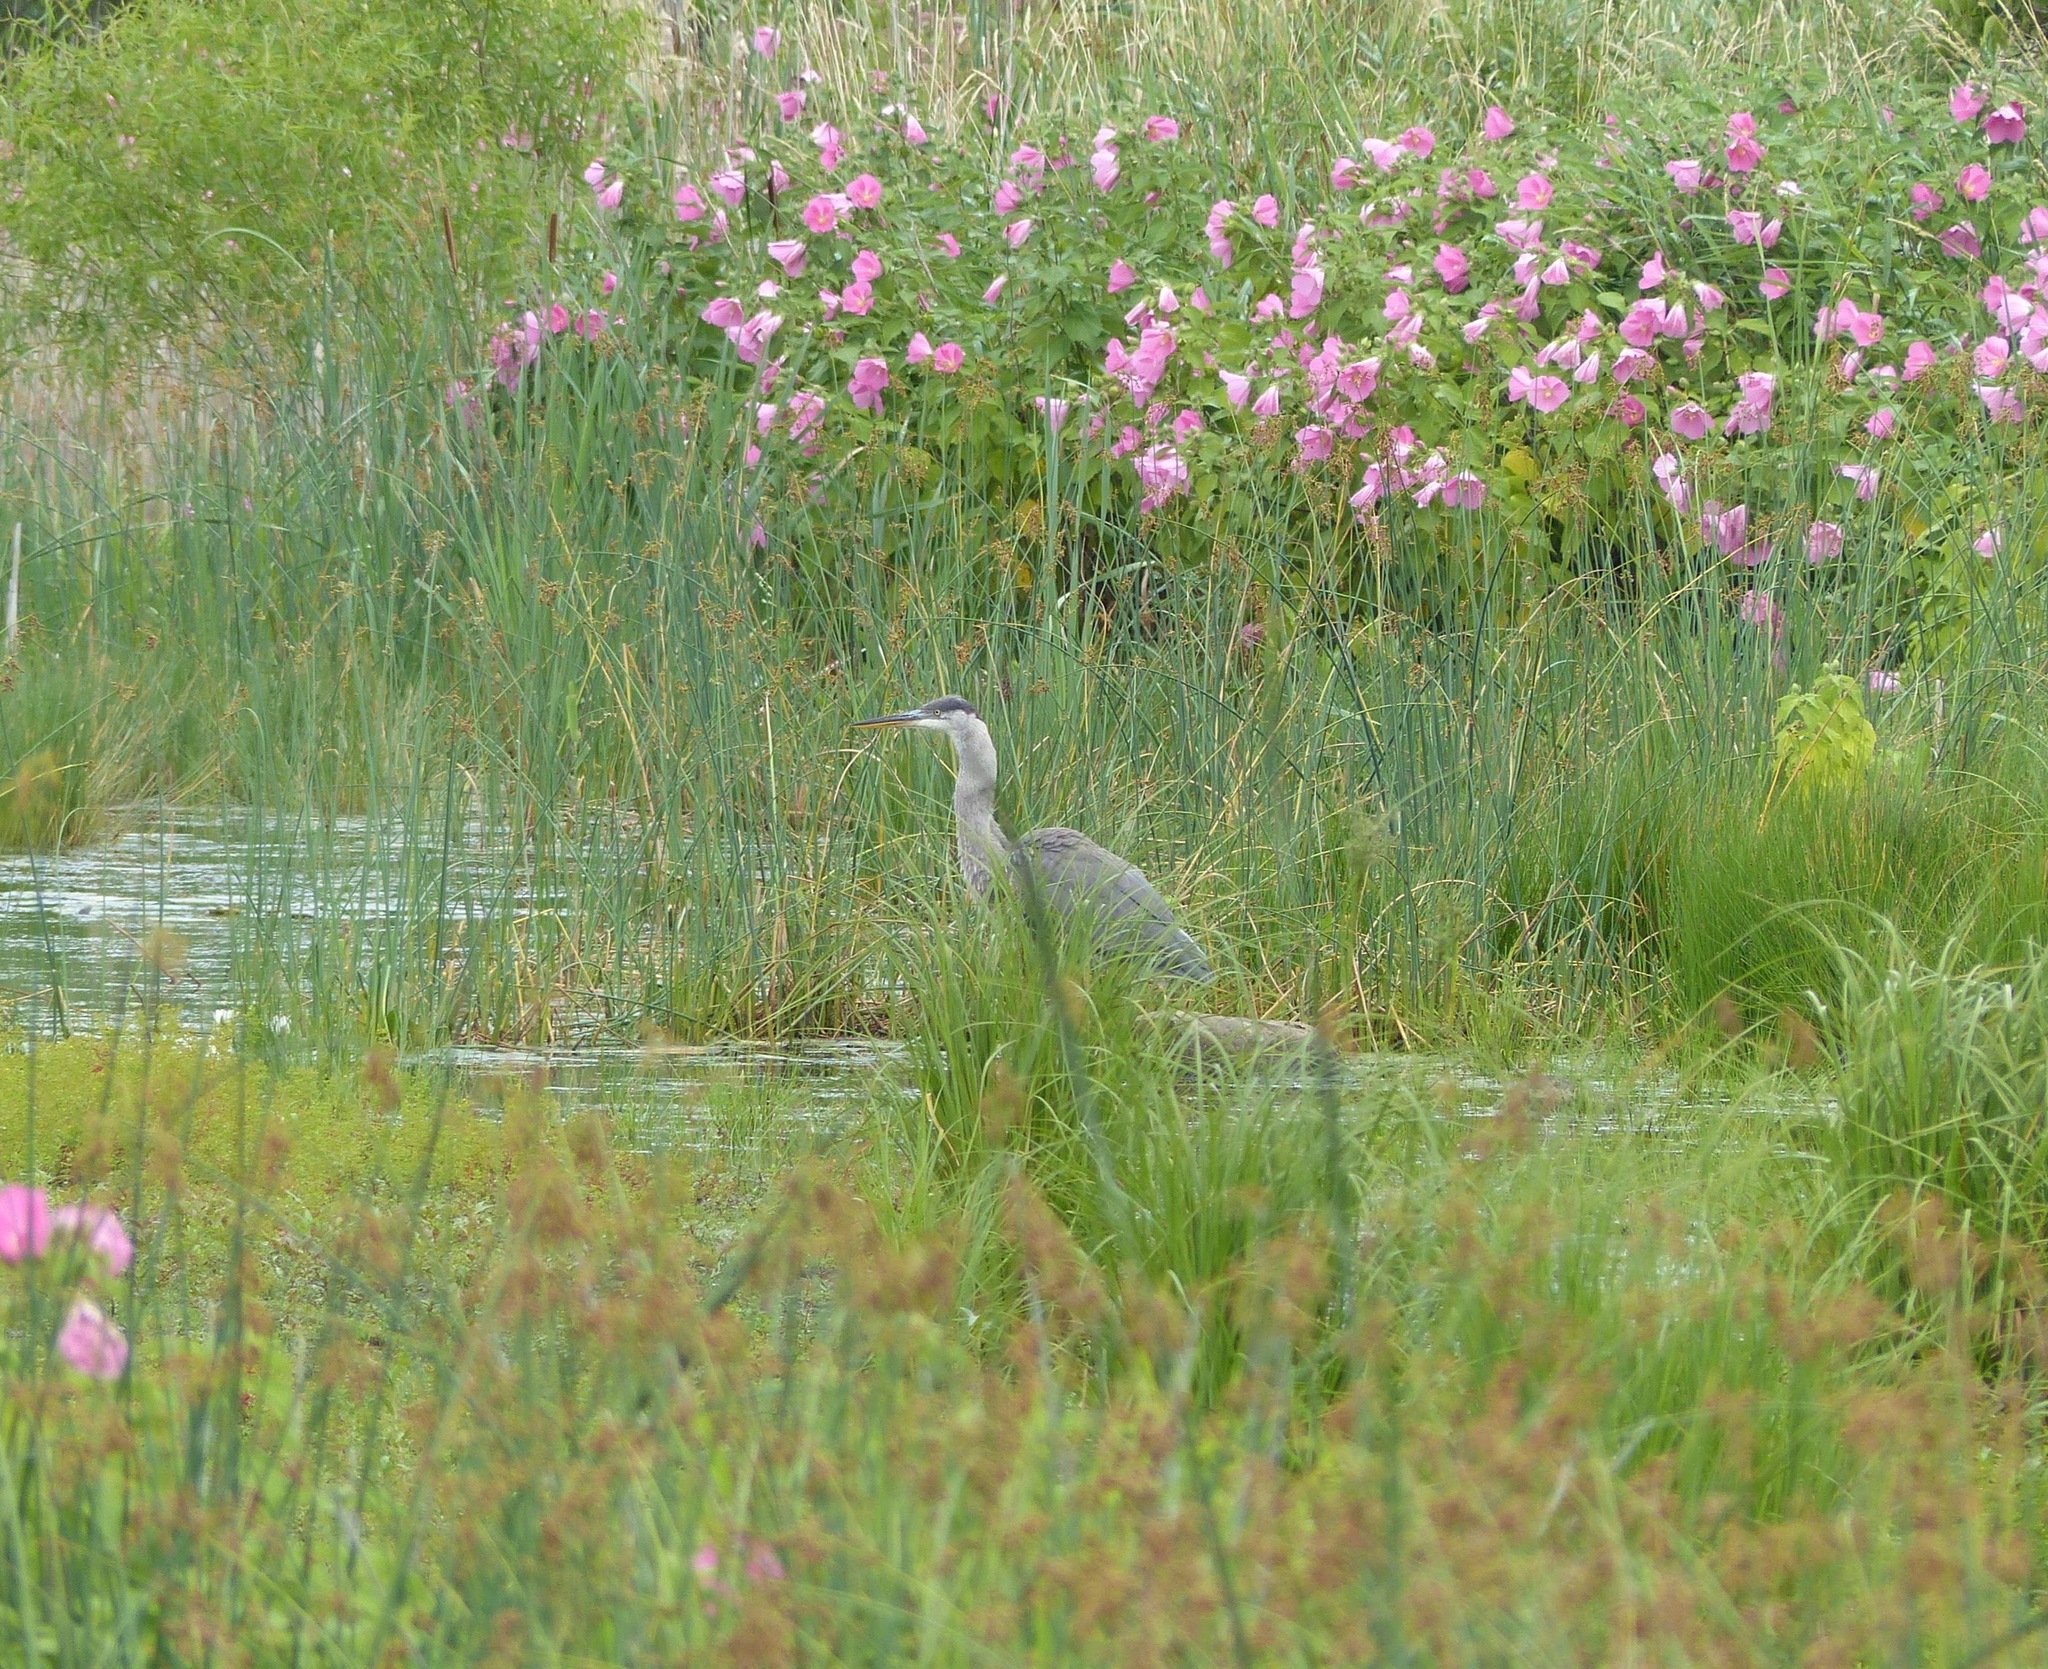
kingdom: Animalia
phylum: Chordata
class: Aves
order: Pelecaniformes
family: Ardeidae
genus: Ardea
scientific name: Ardea herodias
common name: Great blue heron
